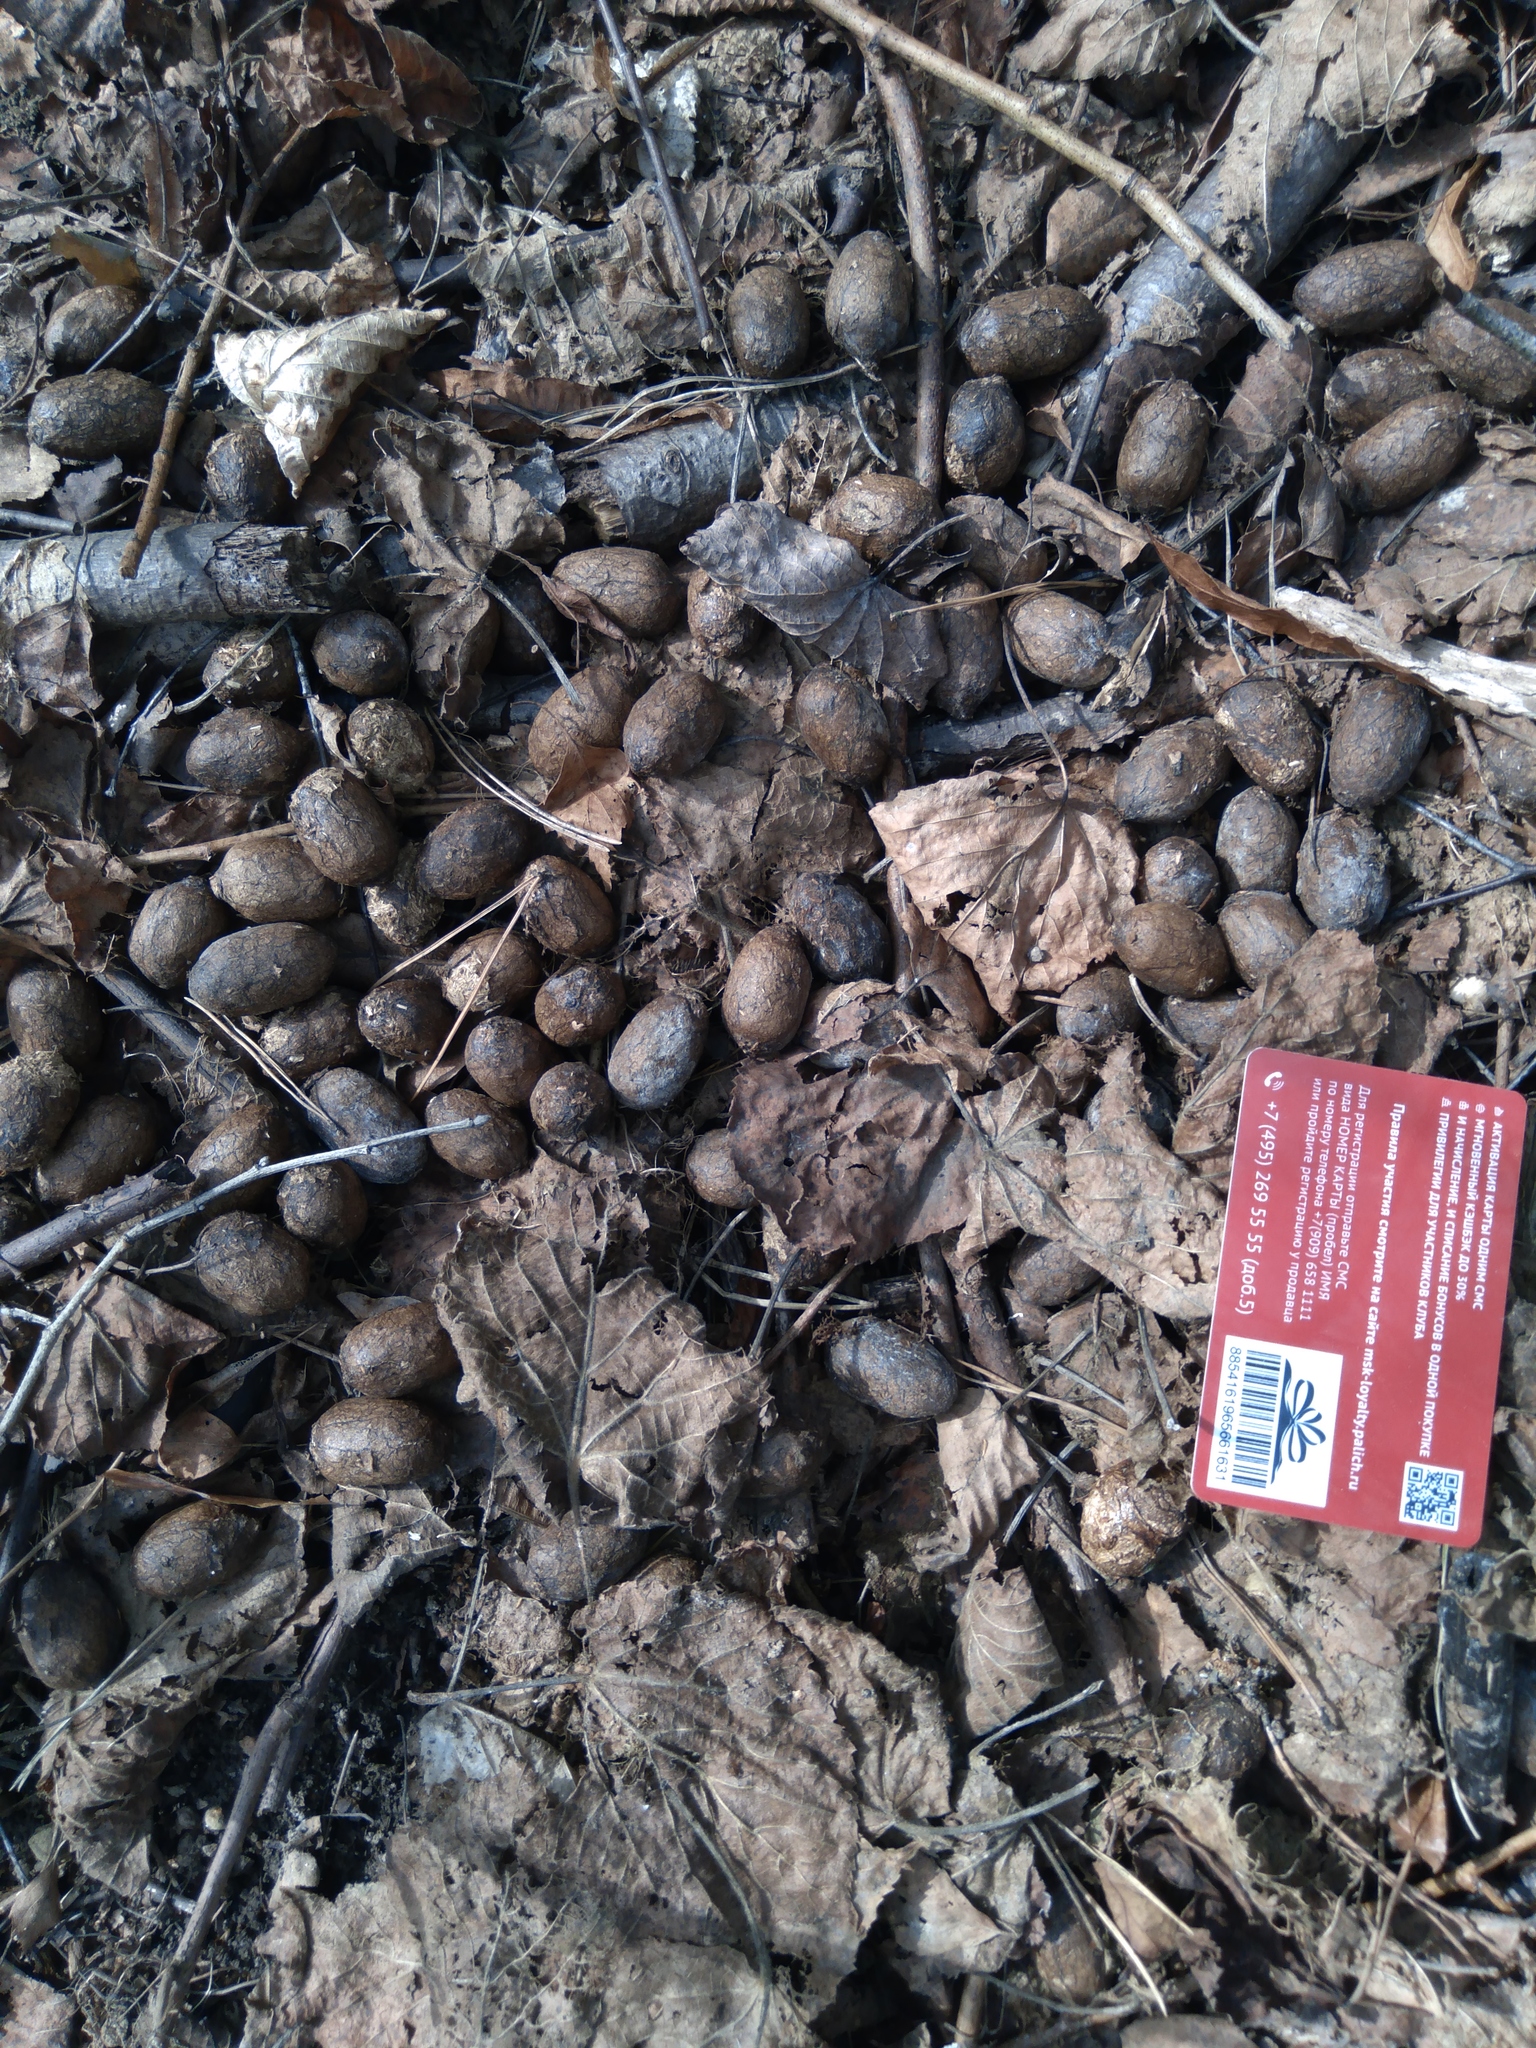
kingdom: Animalia
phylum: Chordata
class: Mammalia
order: Artiodactyla
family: Cervidae
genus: Alces
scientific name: Alces alces
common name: Moose
